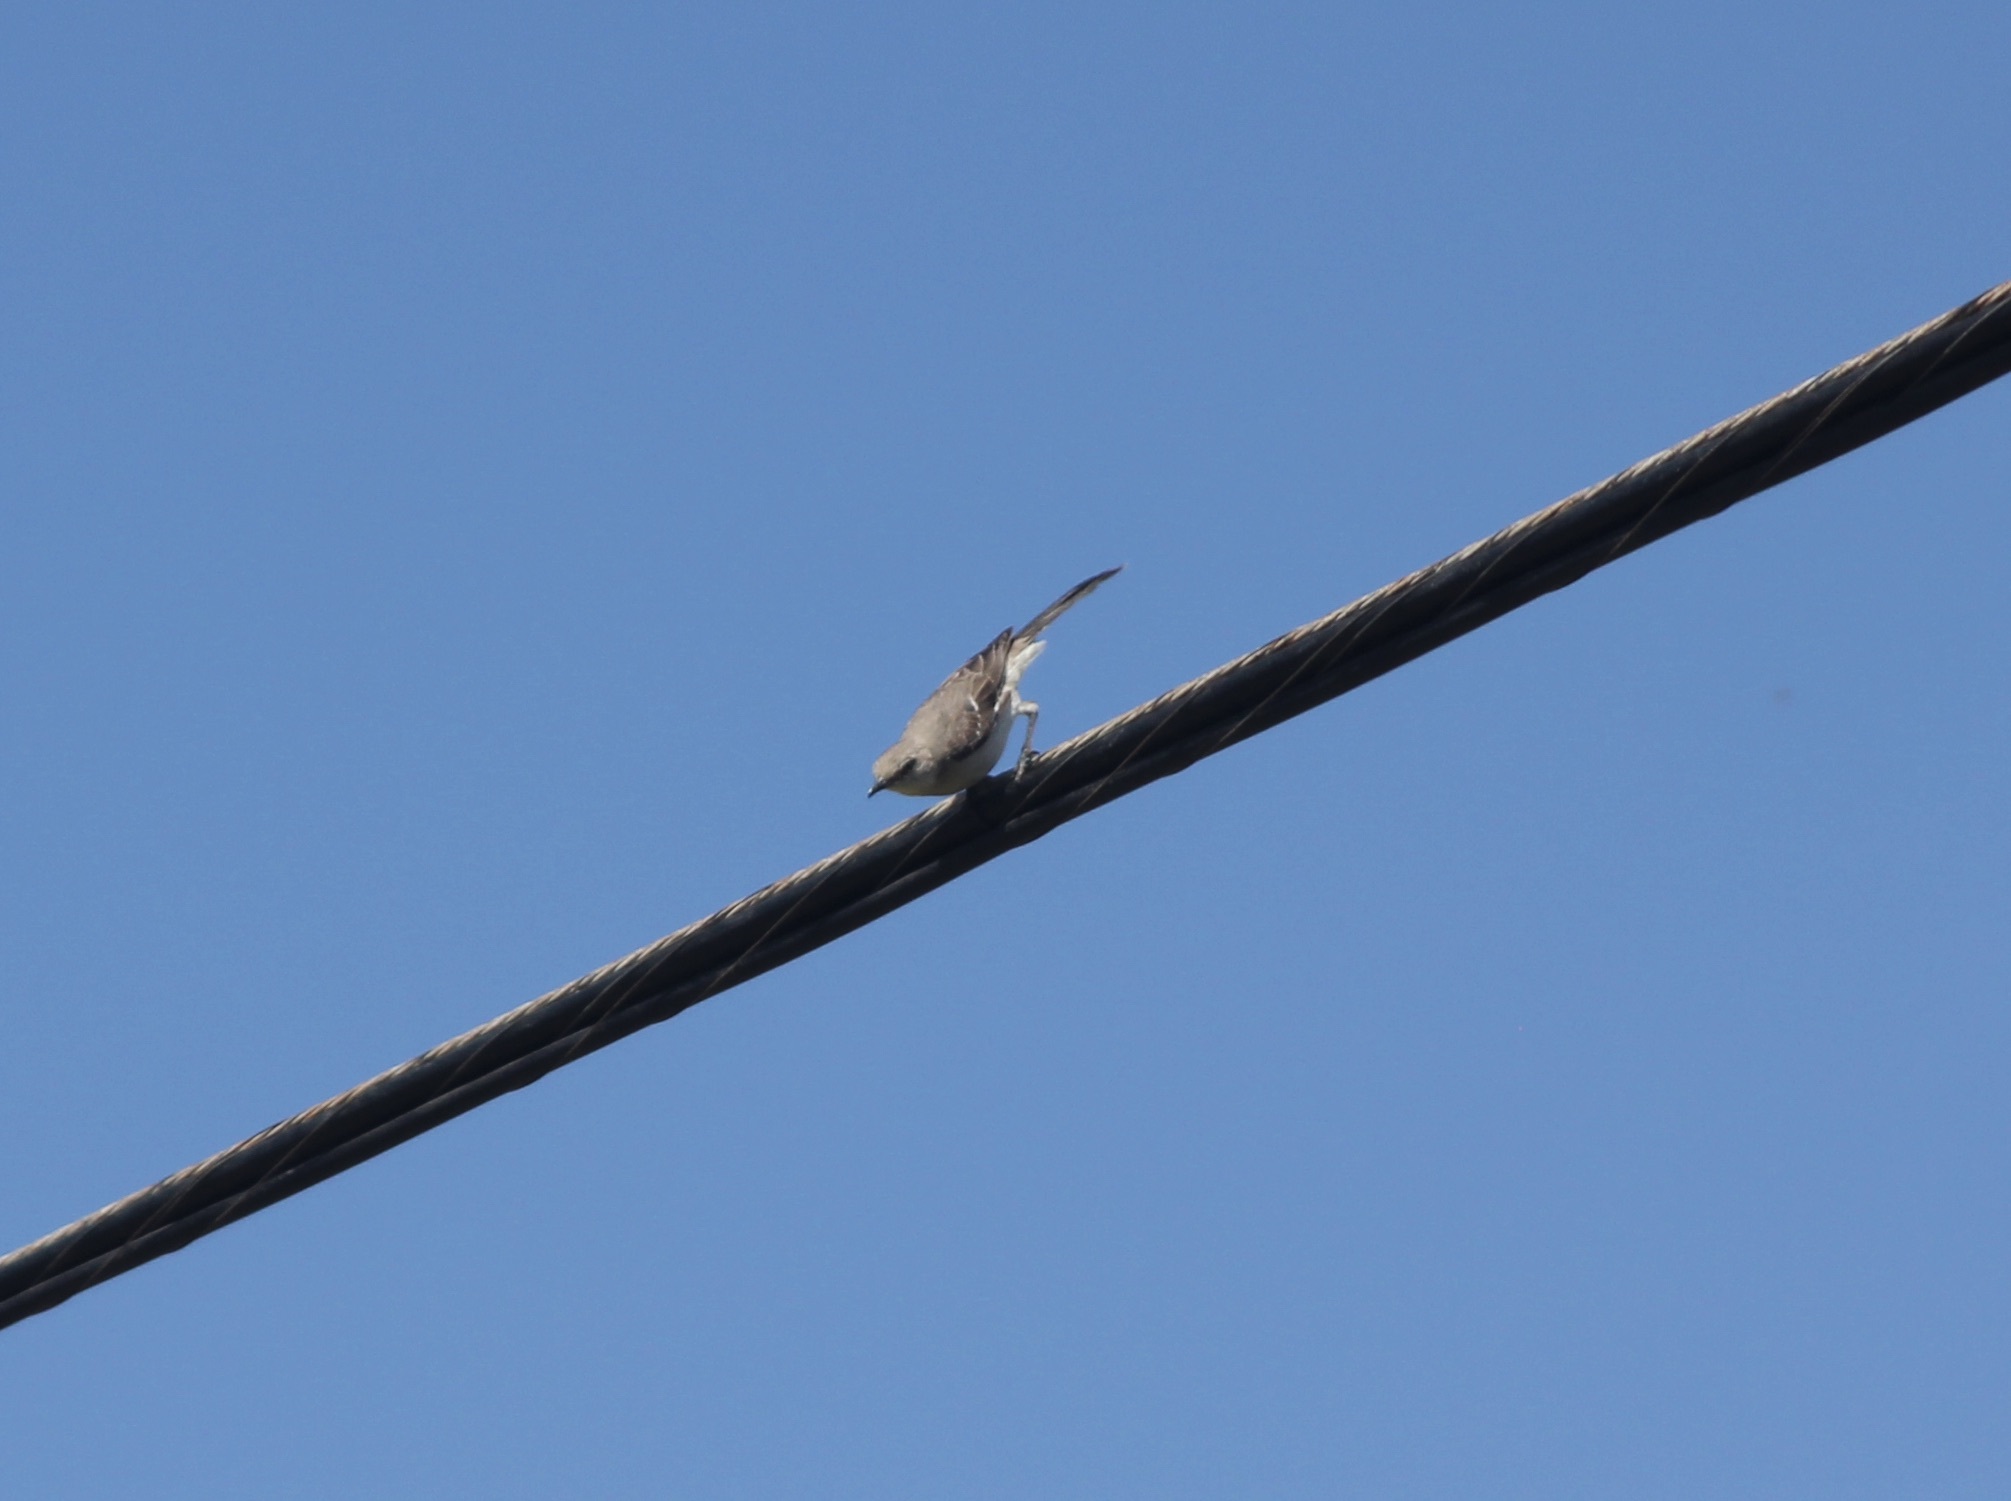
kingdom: Animalia
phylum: Chordata
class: Aves
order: Passeriformes
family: Mimidae
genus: Mimus
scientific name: Mimus polyglottos
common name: Northern mockingbird
